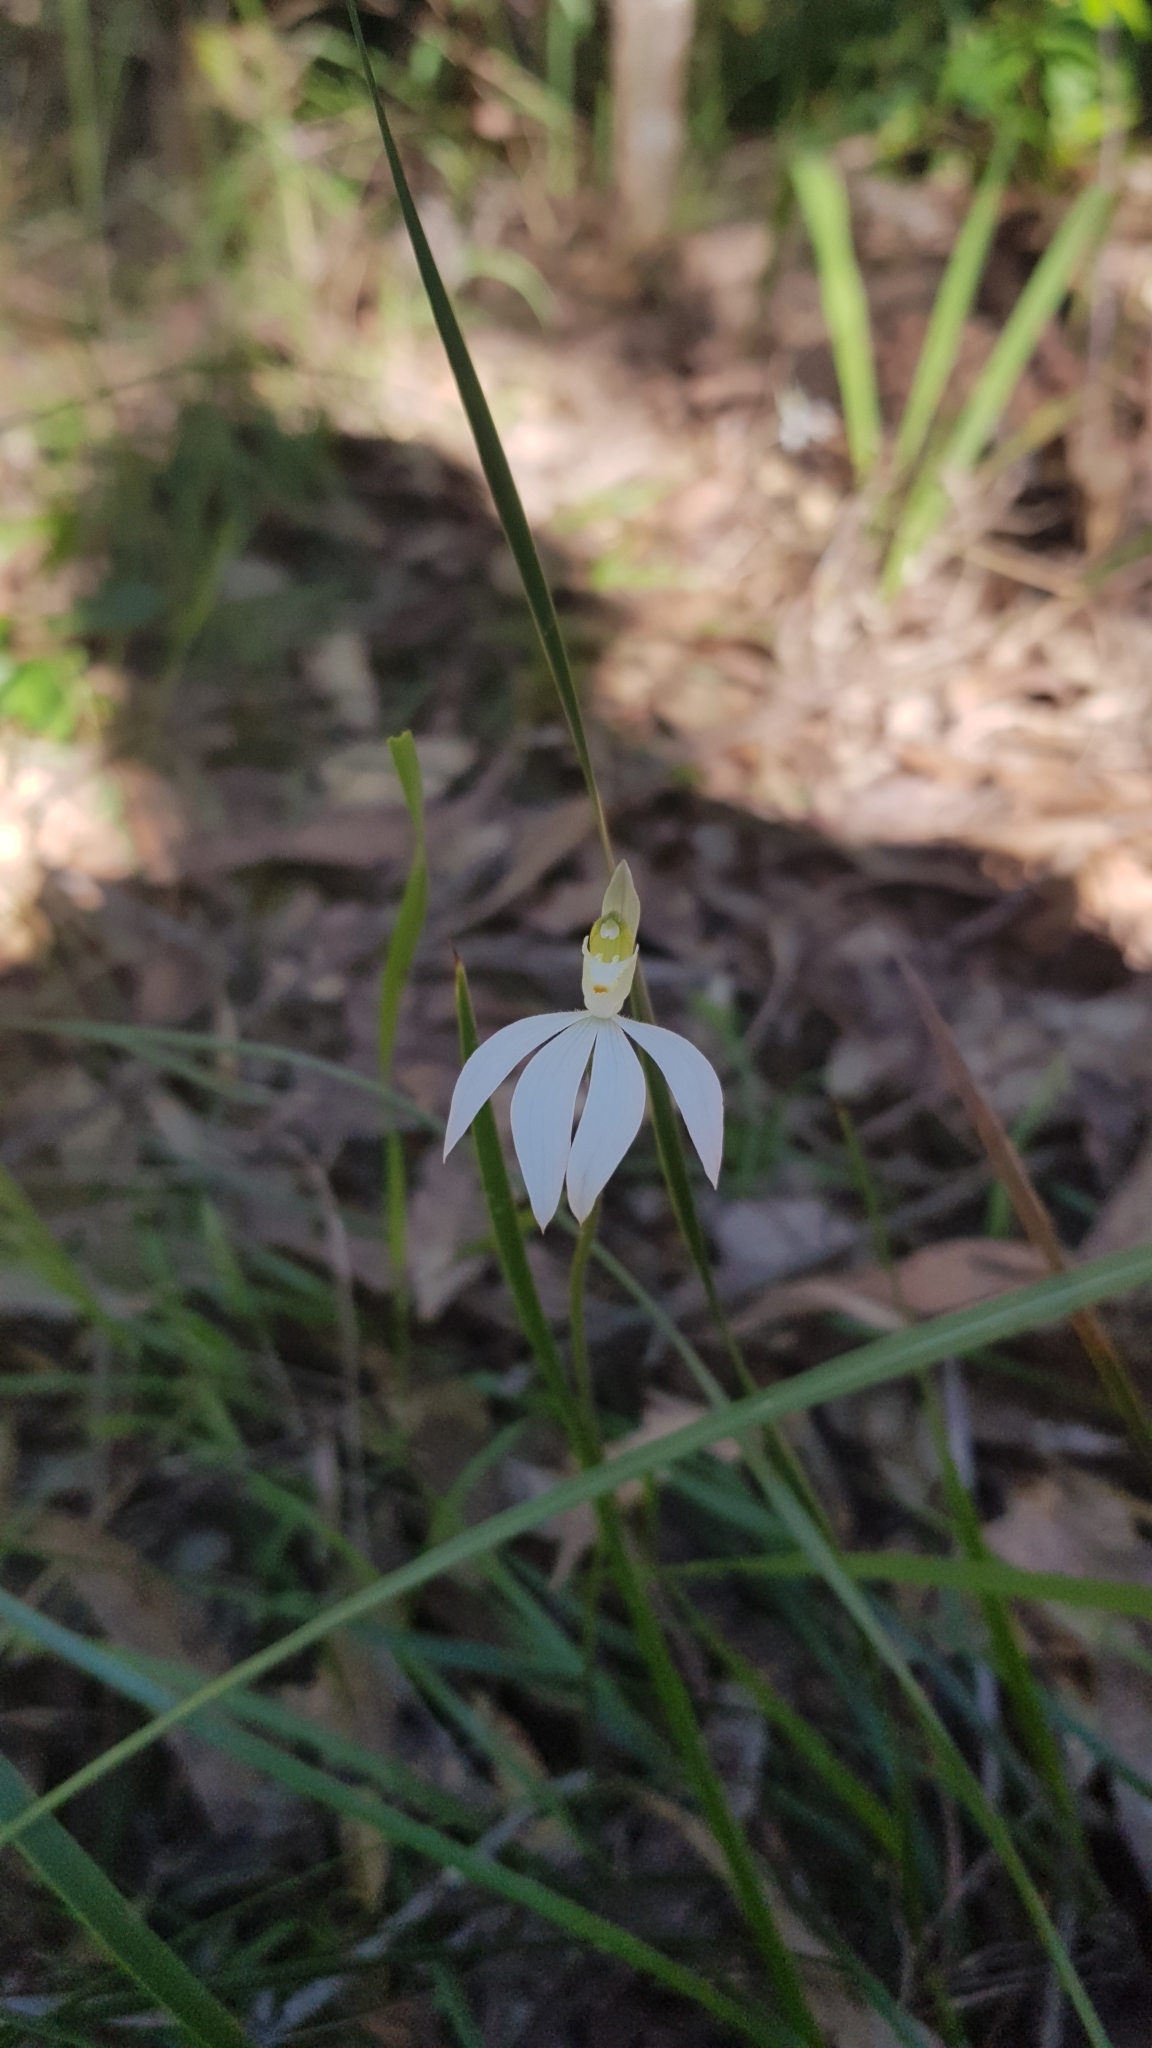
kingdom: Plantae
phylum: Tracheophyta
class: Liliopsida
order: Asparagales
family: Orchidaceae
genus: Caladenia
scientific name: Caladenia catenata
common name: White caladenia
